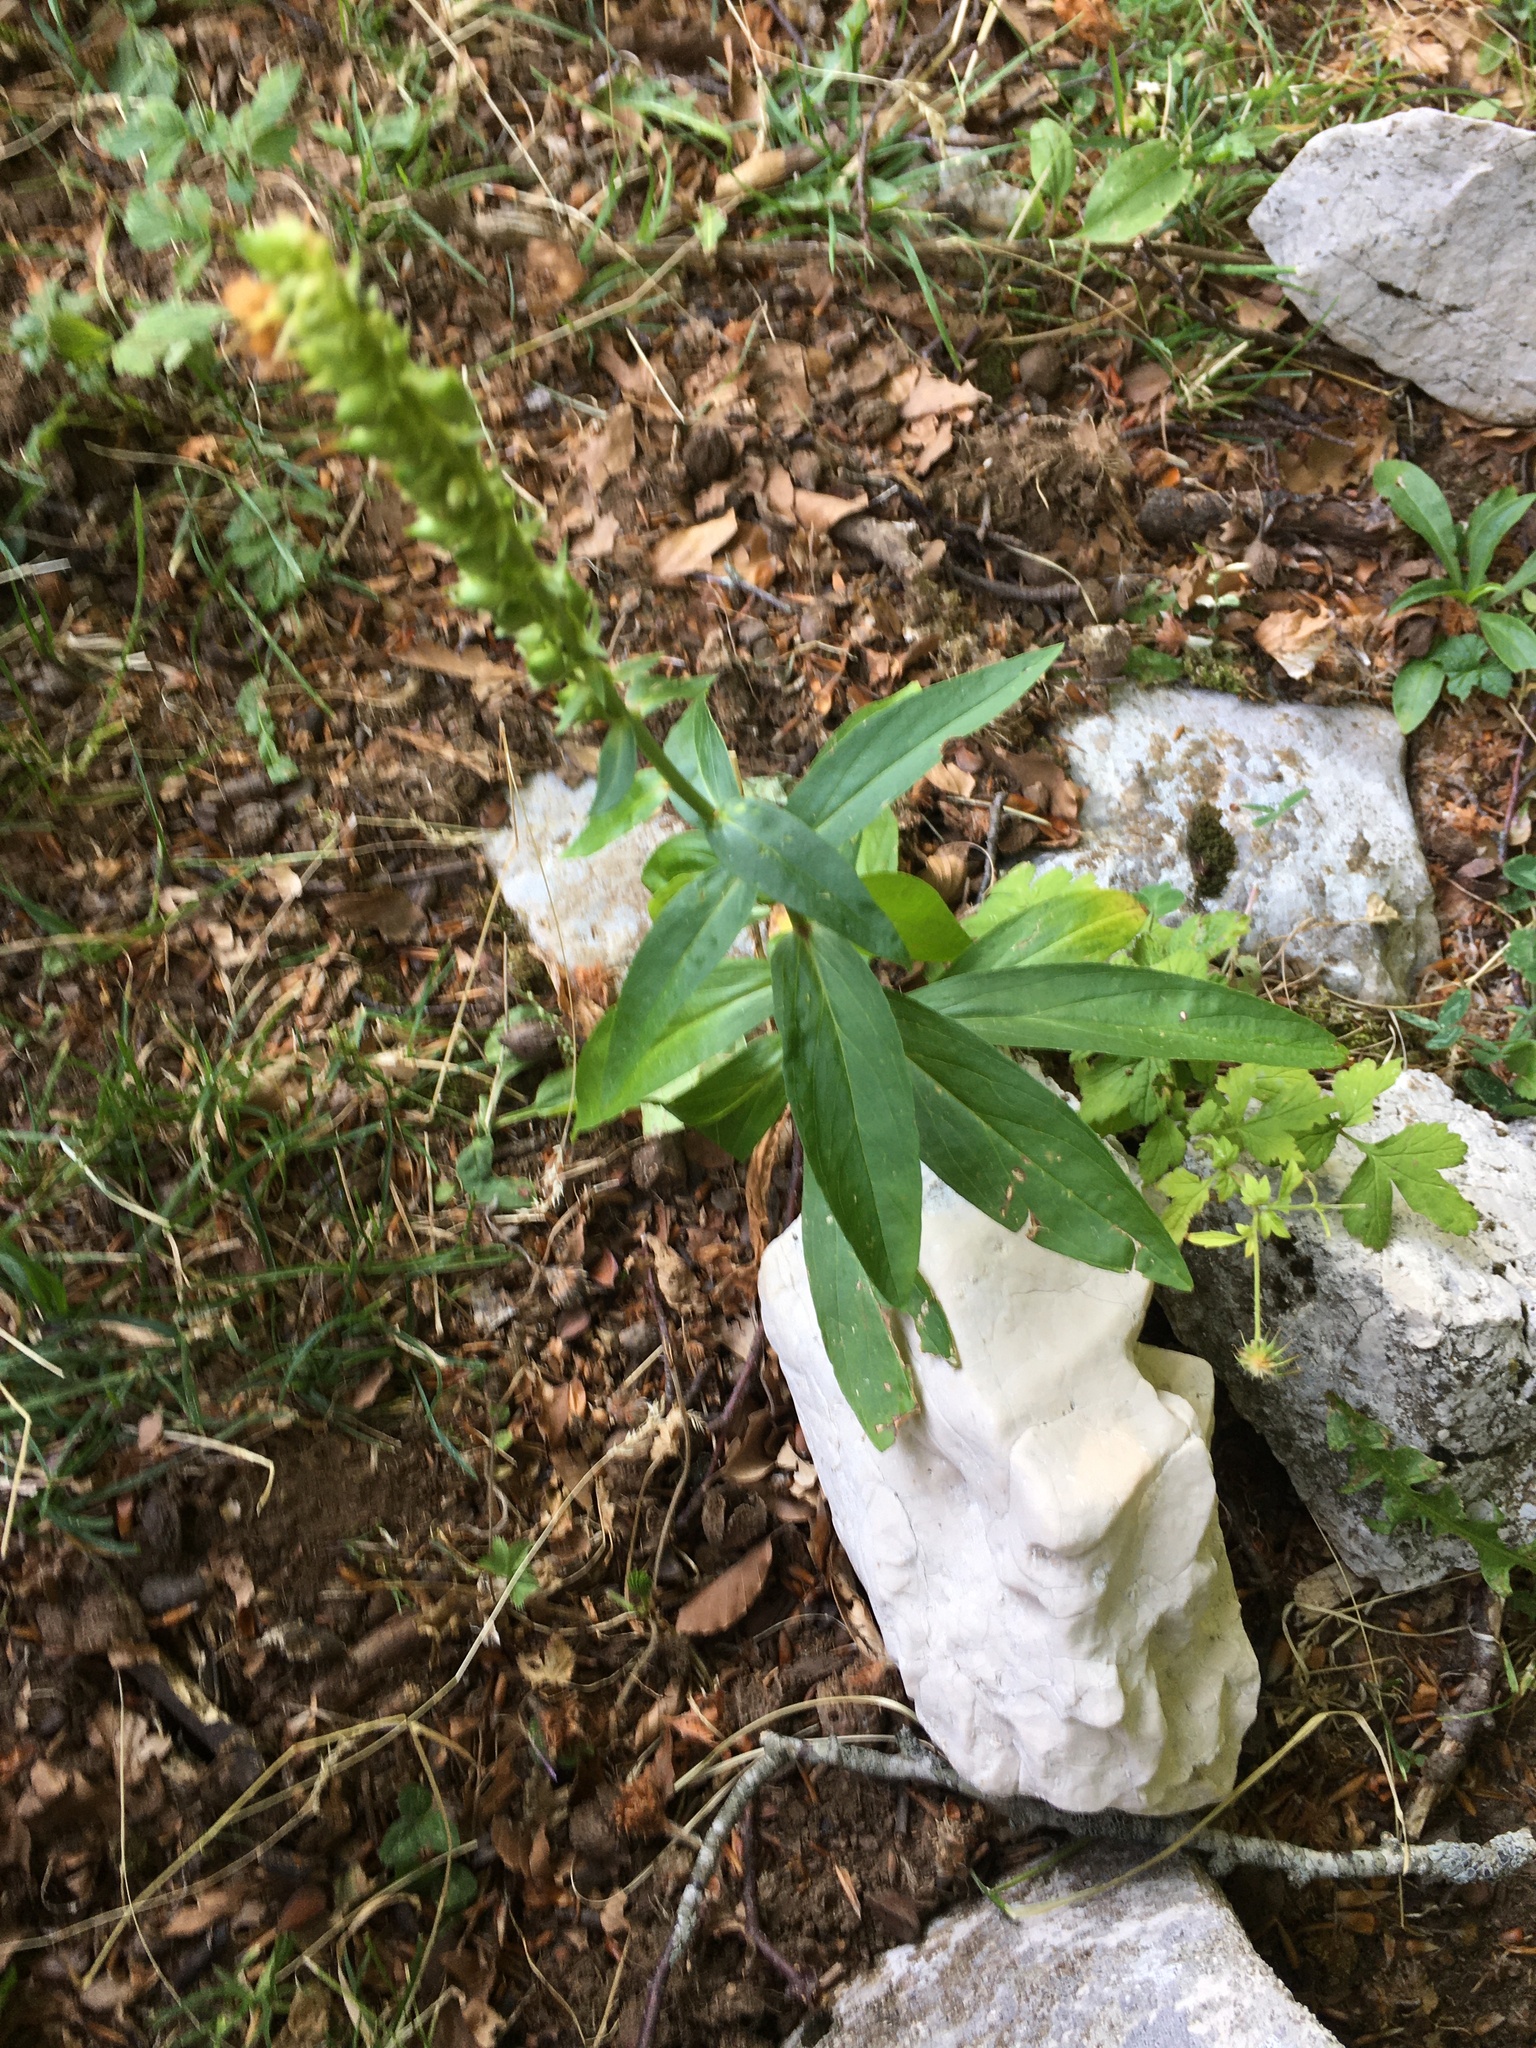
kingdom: Plantae
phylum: Tracheophyta
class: Magnoliopsida
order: Lamiales
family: Plantaginaceae
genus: Digitalis
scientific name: Digitalis lutea
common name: Straw foxglove
